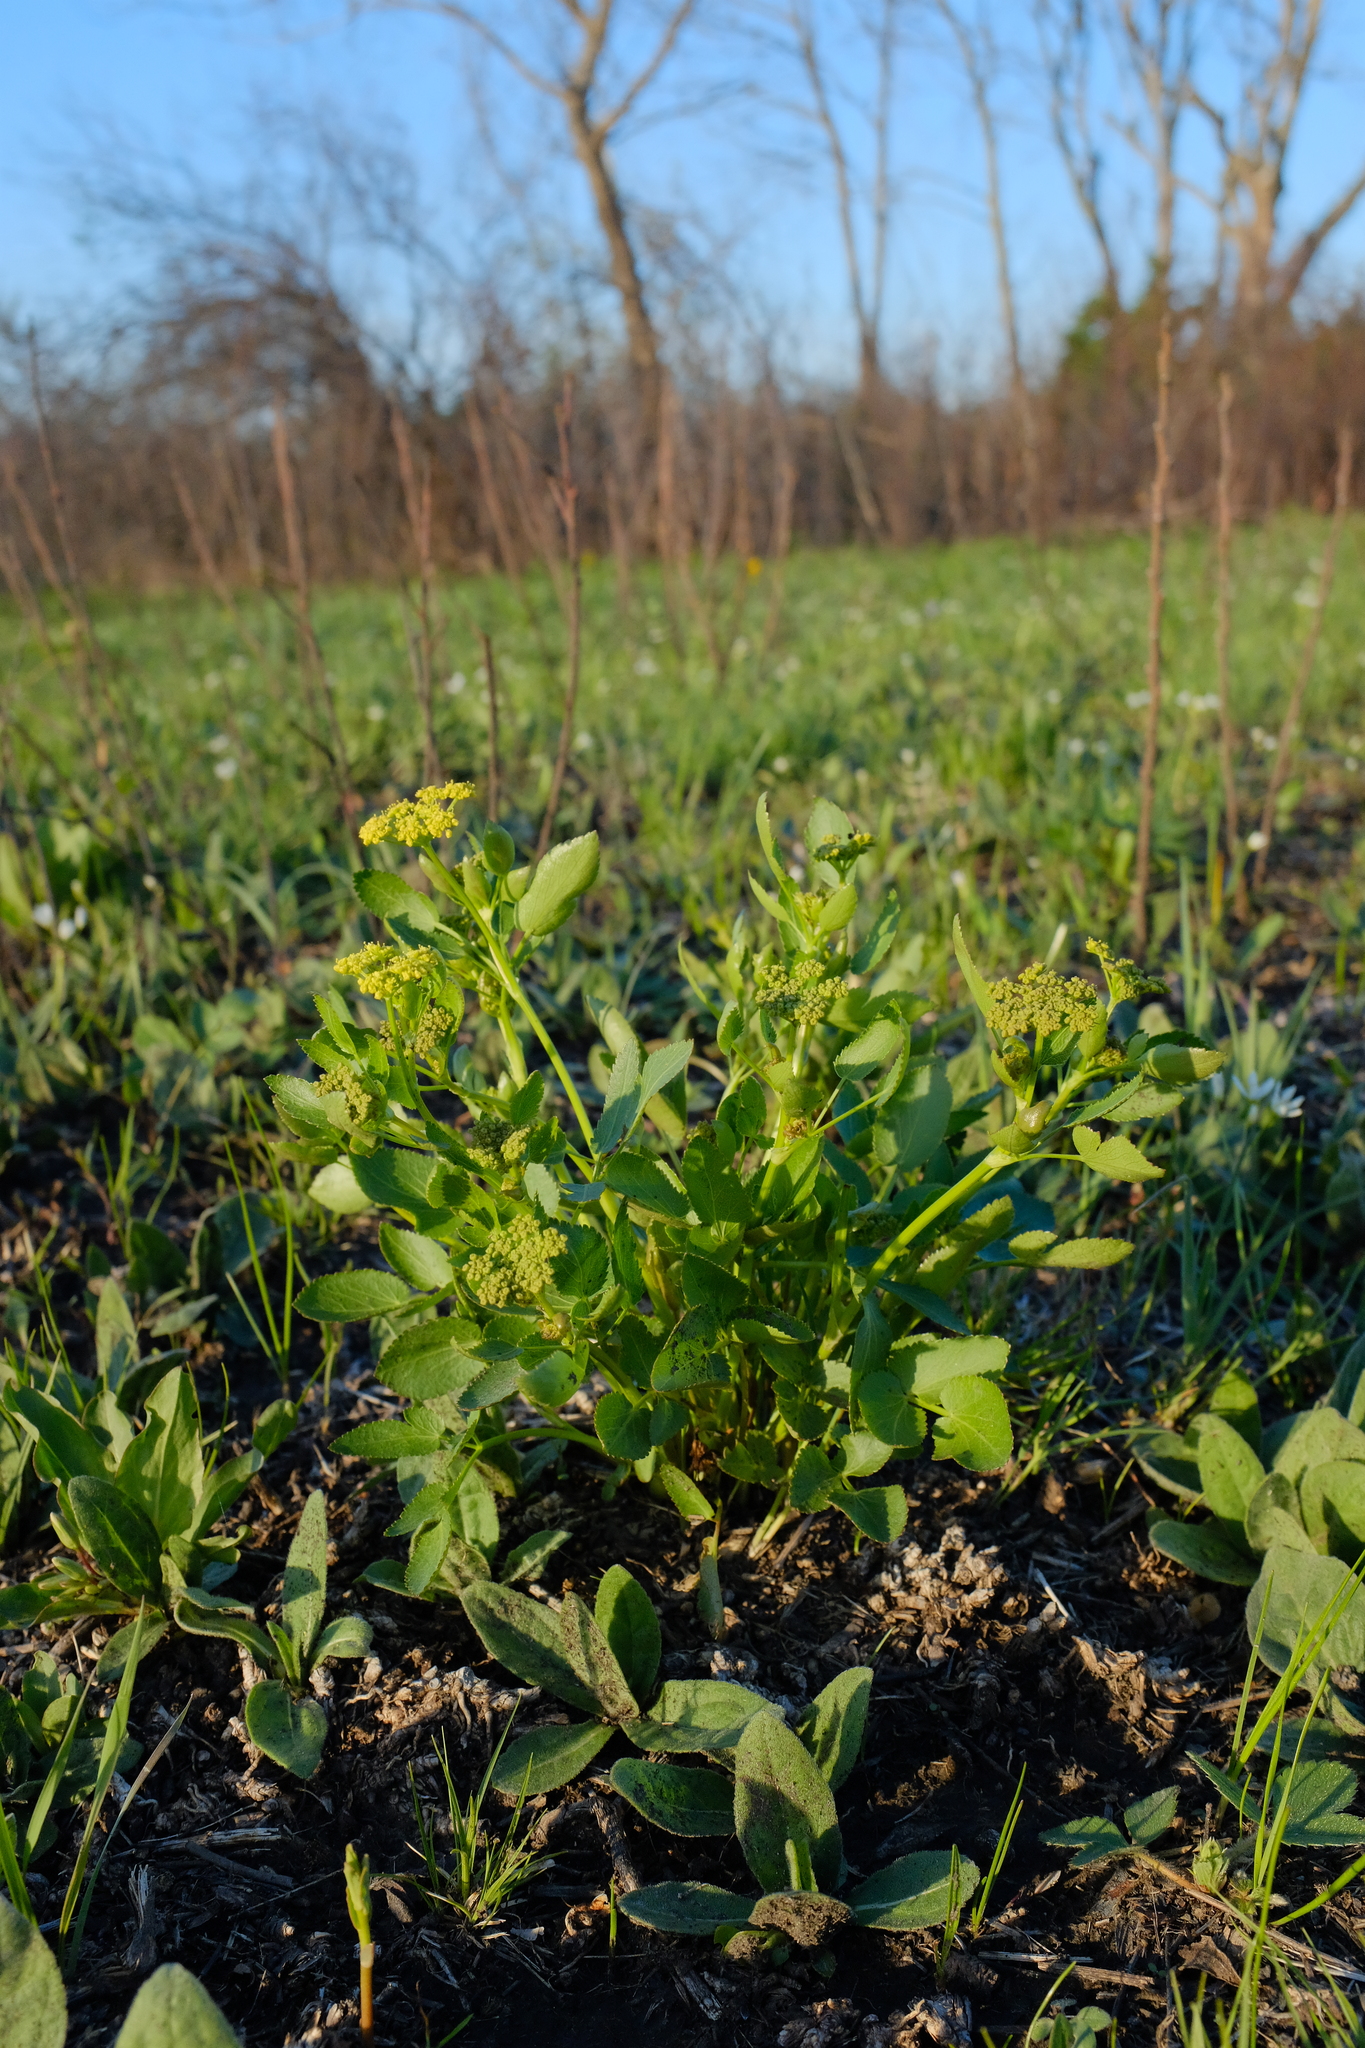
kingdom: Plantae
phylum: Tracheophyta
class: Magnoliopsida
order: Apiales
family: Apiaceae
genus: Zizia
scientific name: Zizia aptera
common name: Heart-leaved alexanders
